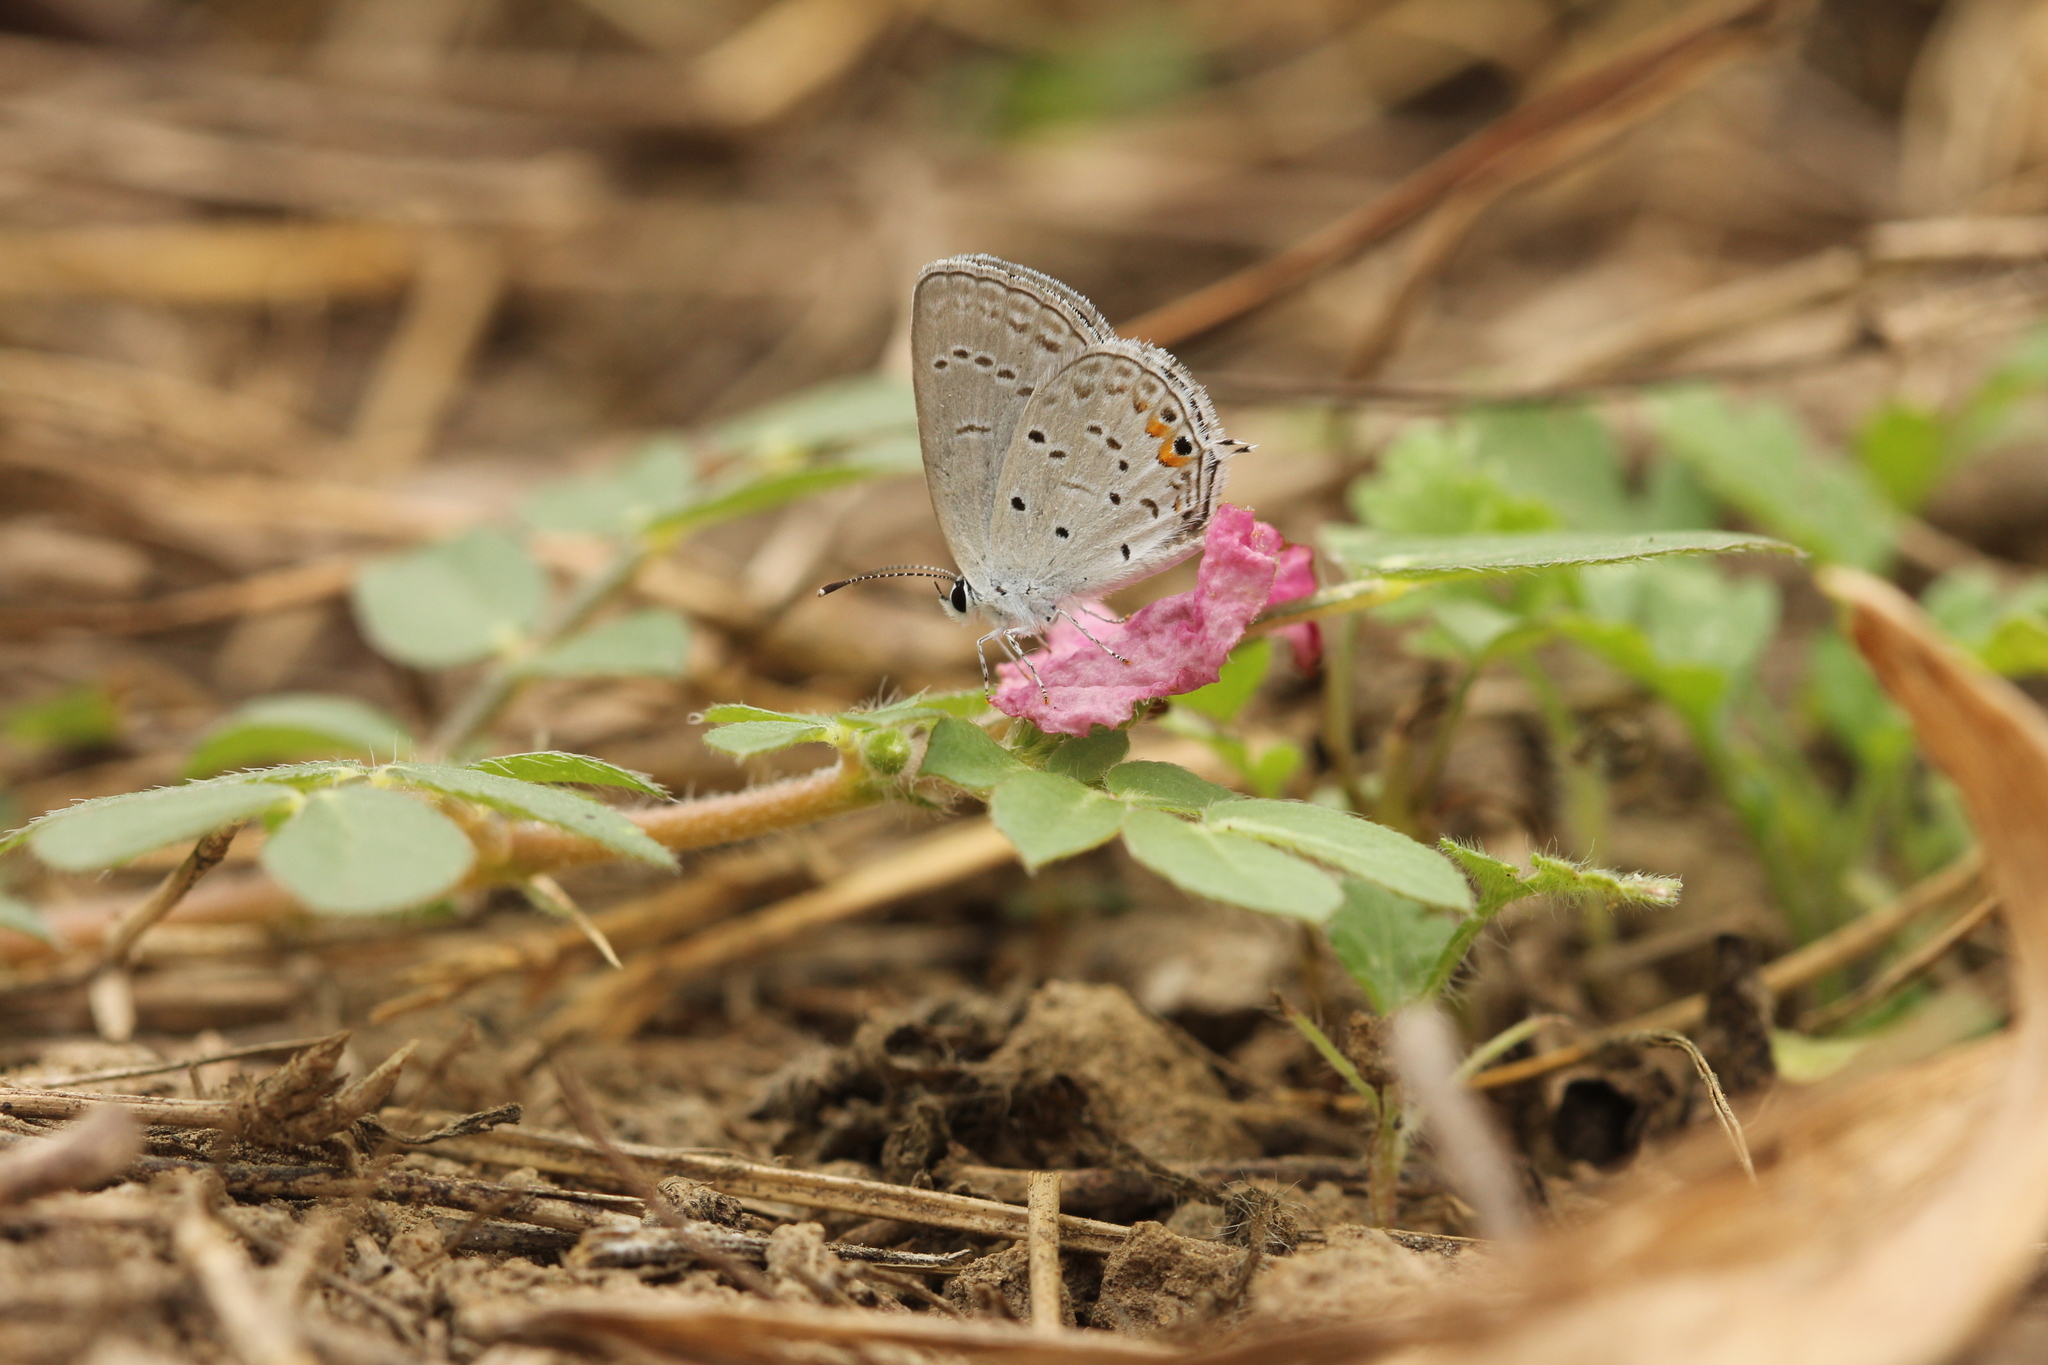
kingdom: Animalia
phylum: Arthropoda
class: Insecta
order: Lepidoptera
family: Lycaenidae
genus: Elkalyce
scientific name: Elkalyce comyntas
